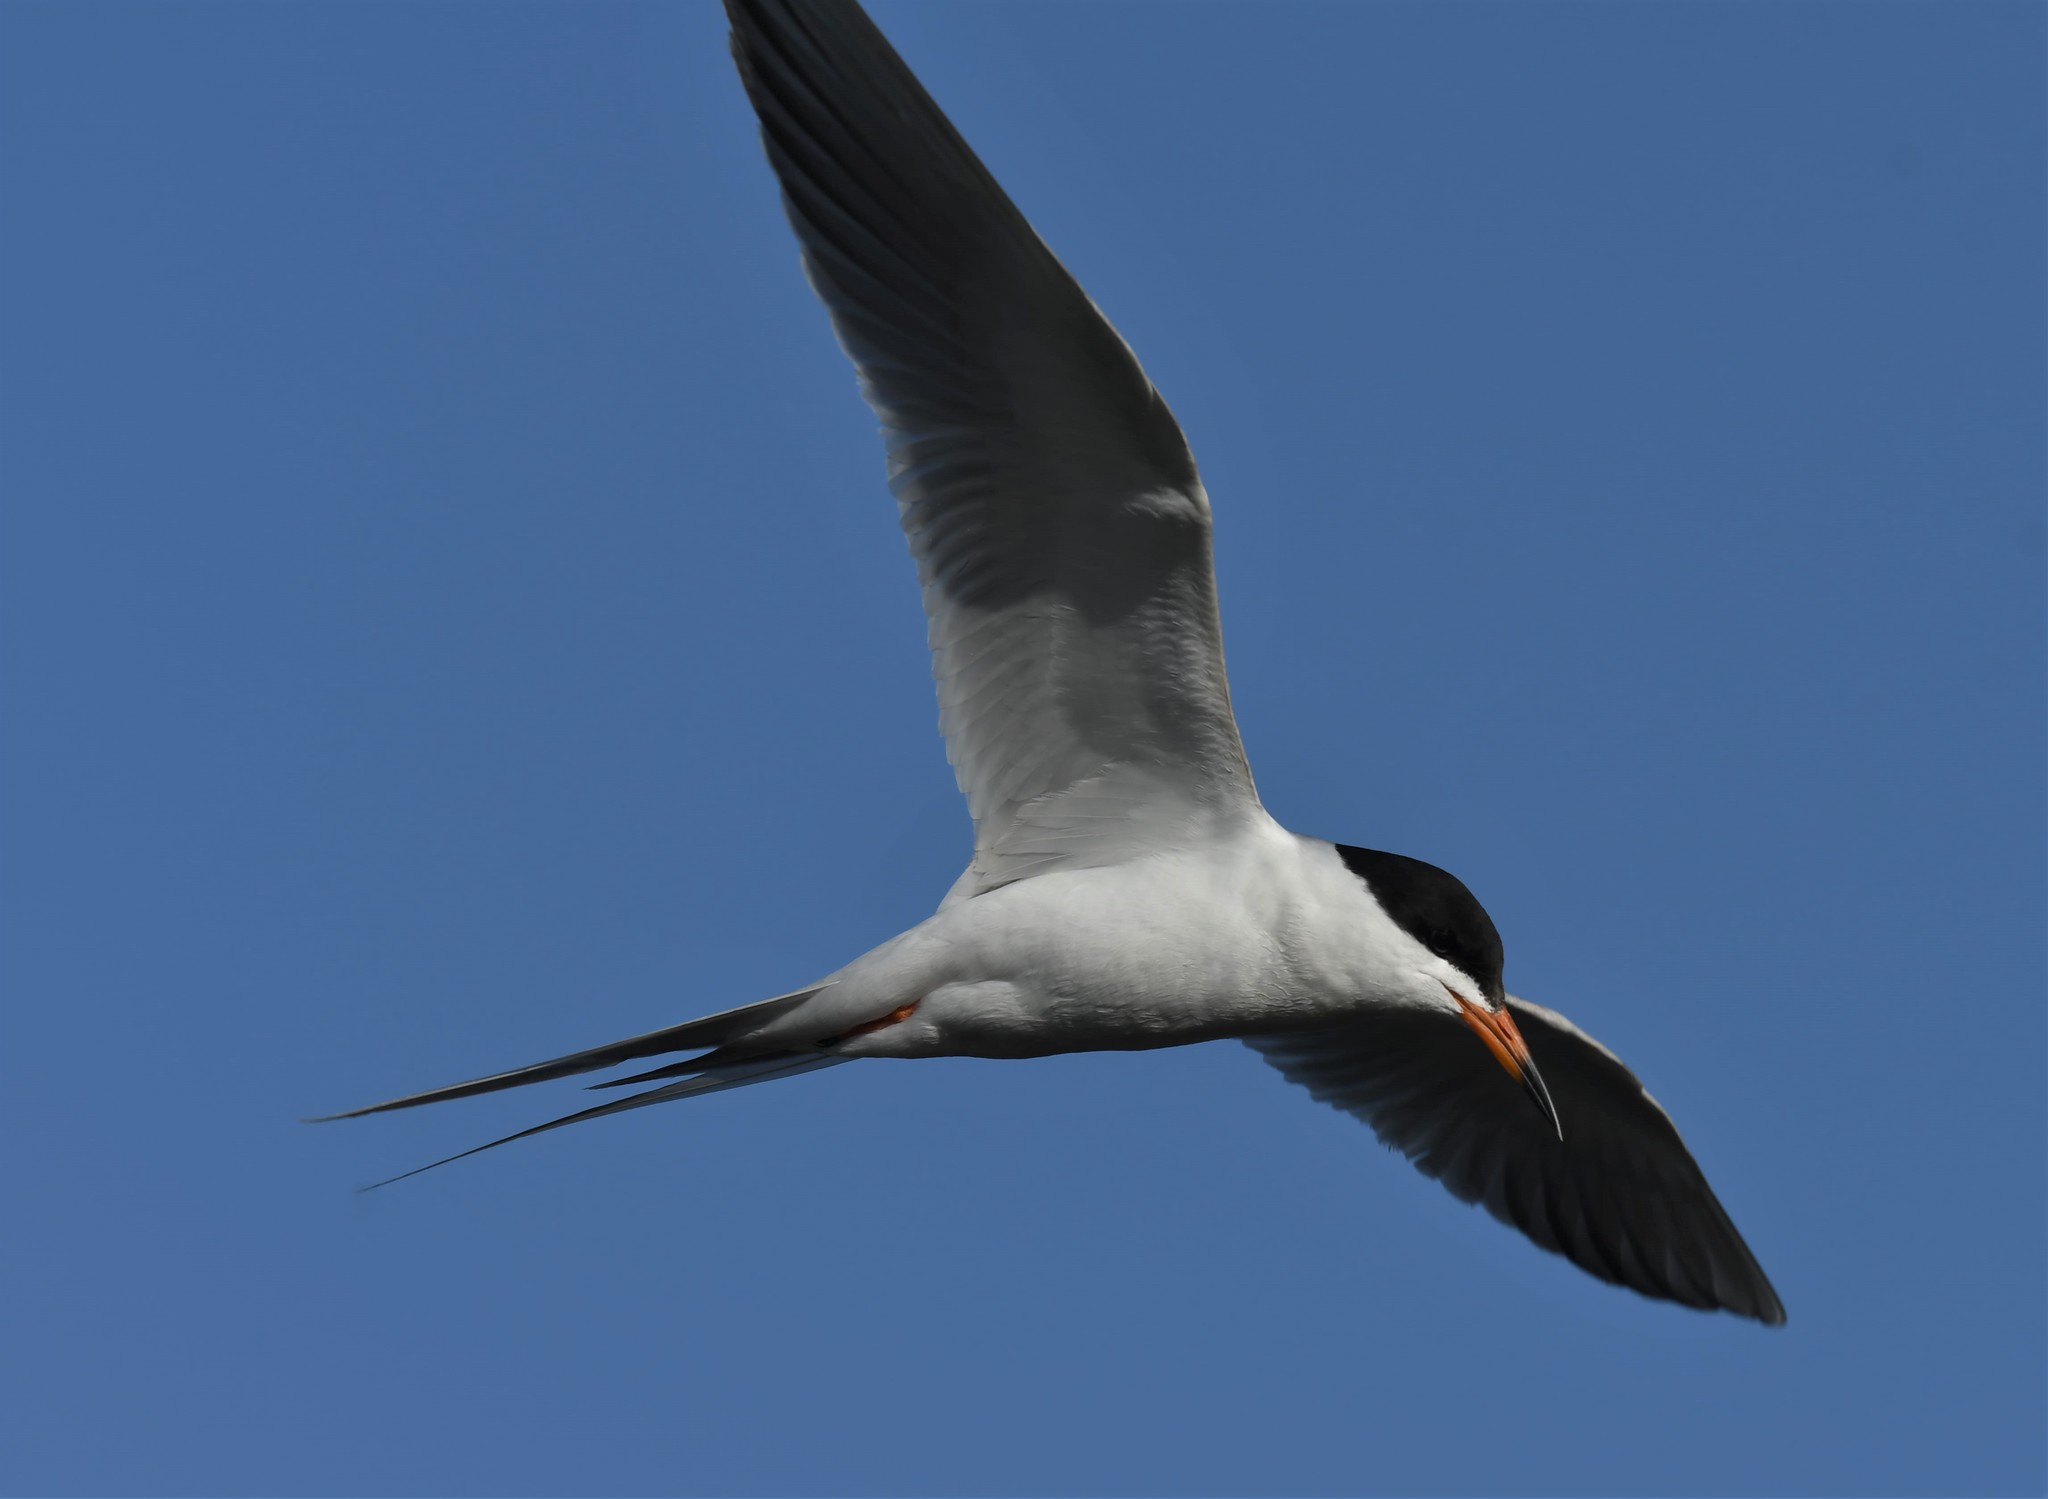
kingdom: Animalia
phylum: Chordata
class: Aves
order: Charadriiformes
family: Laridae
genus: Sterna
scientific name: Sterna forsteri
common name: Forster's tern
